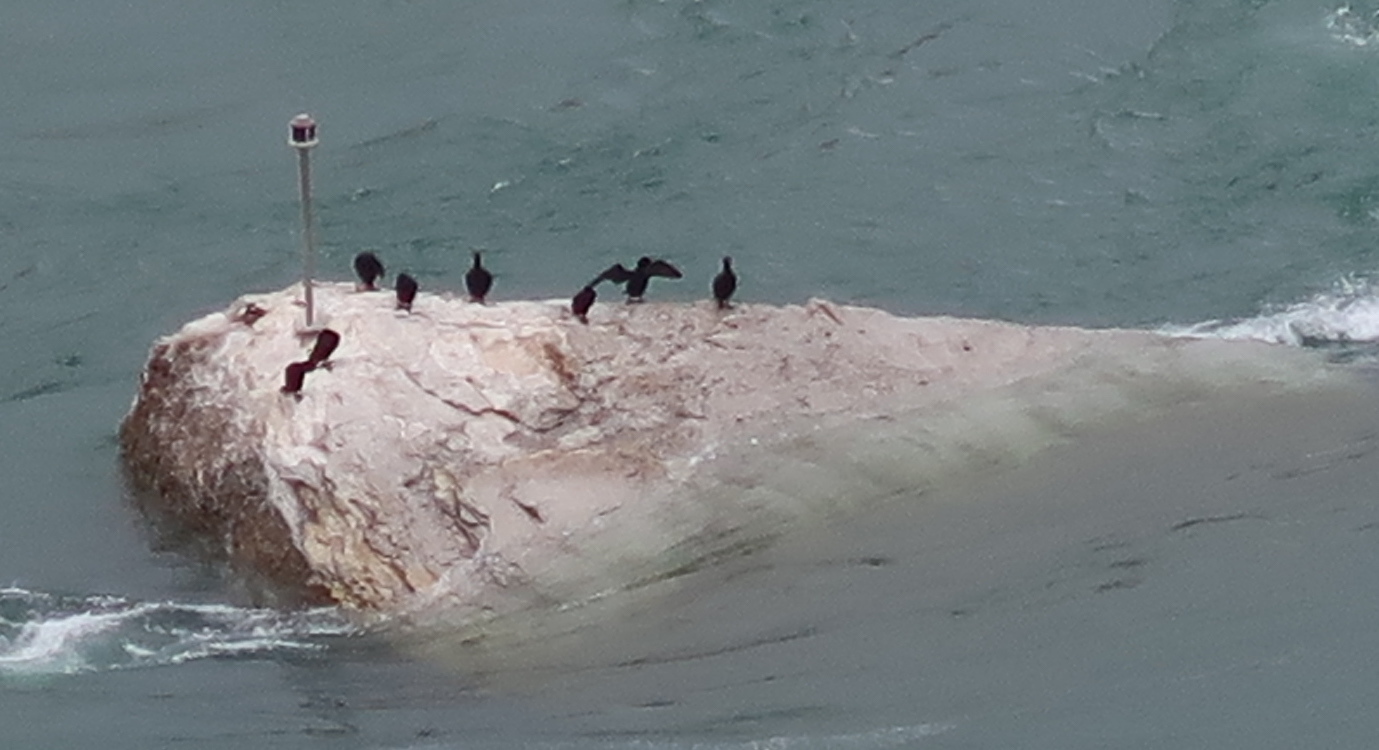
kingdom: Animalia
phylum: Chordata
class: Aves
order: Suliformes
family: Phalacrocoracidae
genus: Phalacrocorax
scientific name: Phalacrocorax auritus
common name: Double-crested cormorant
